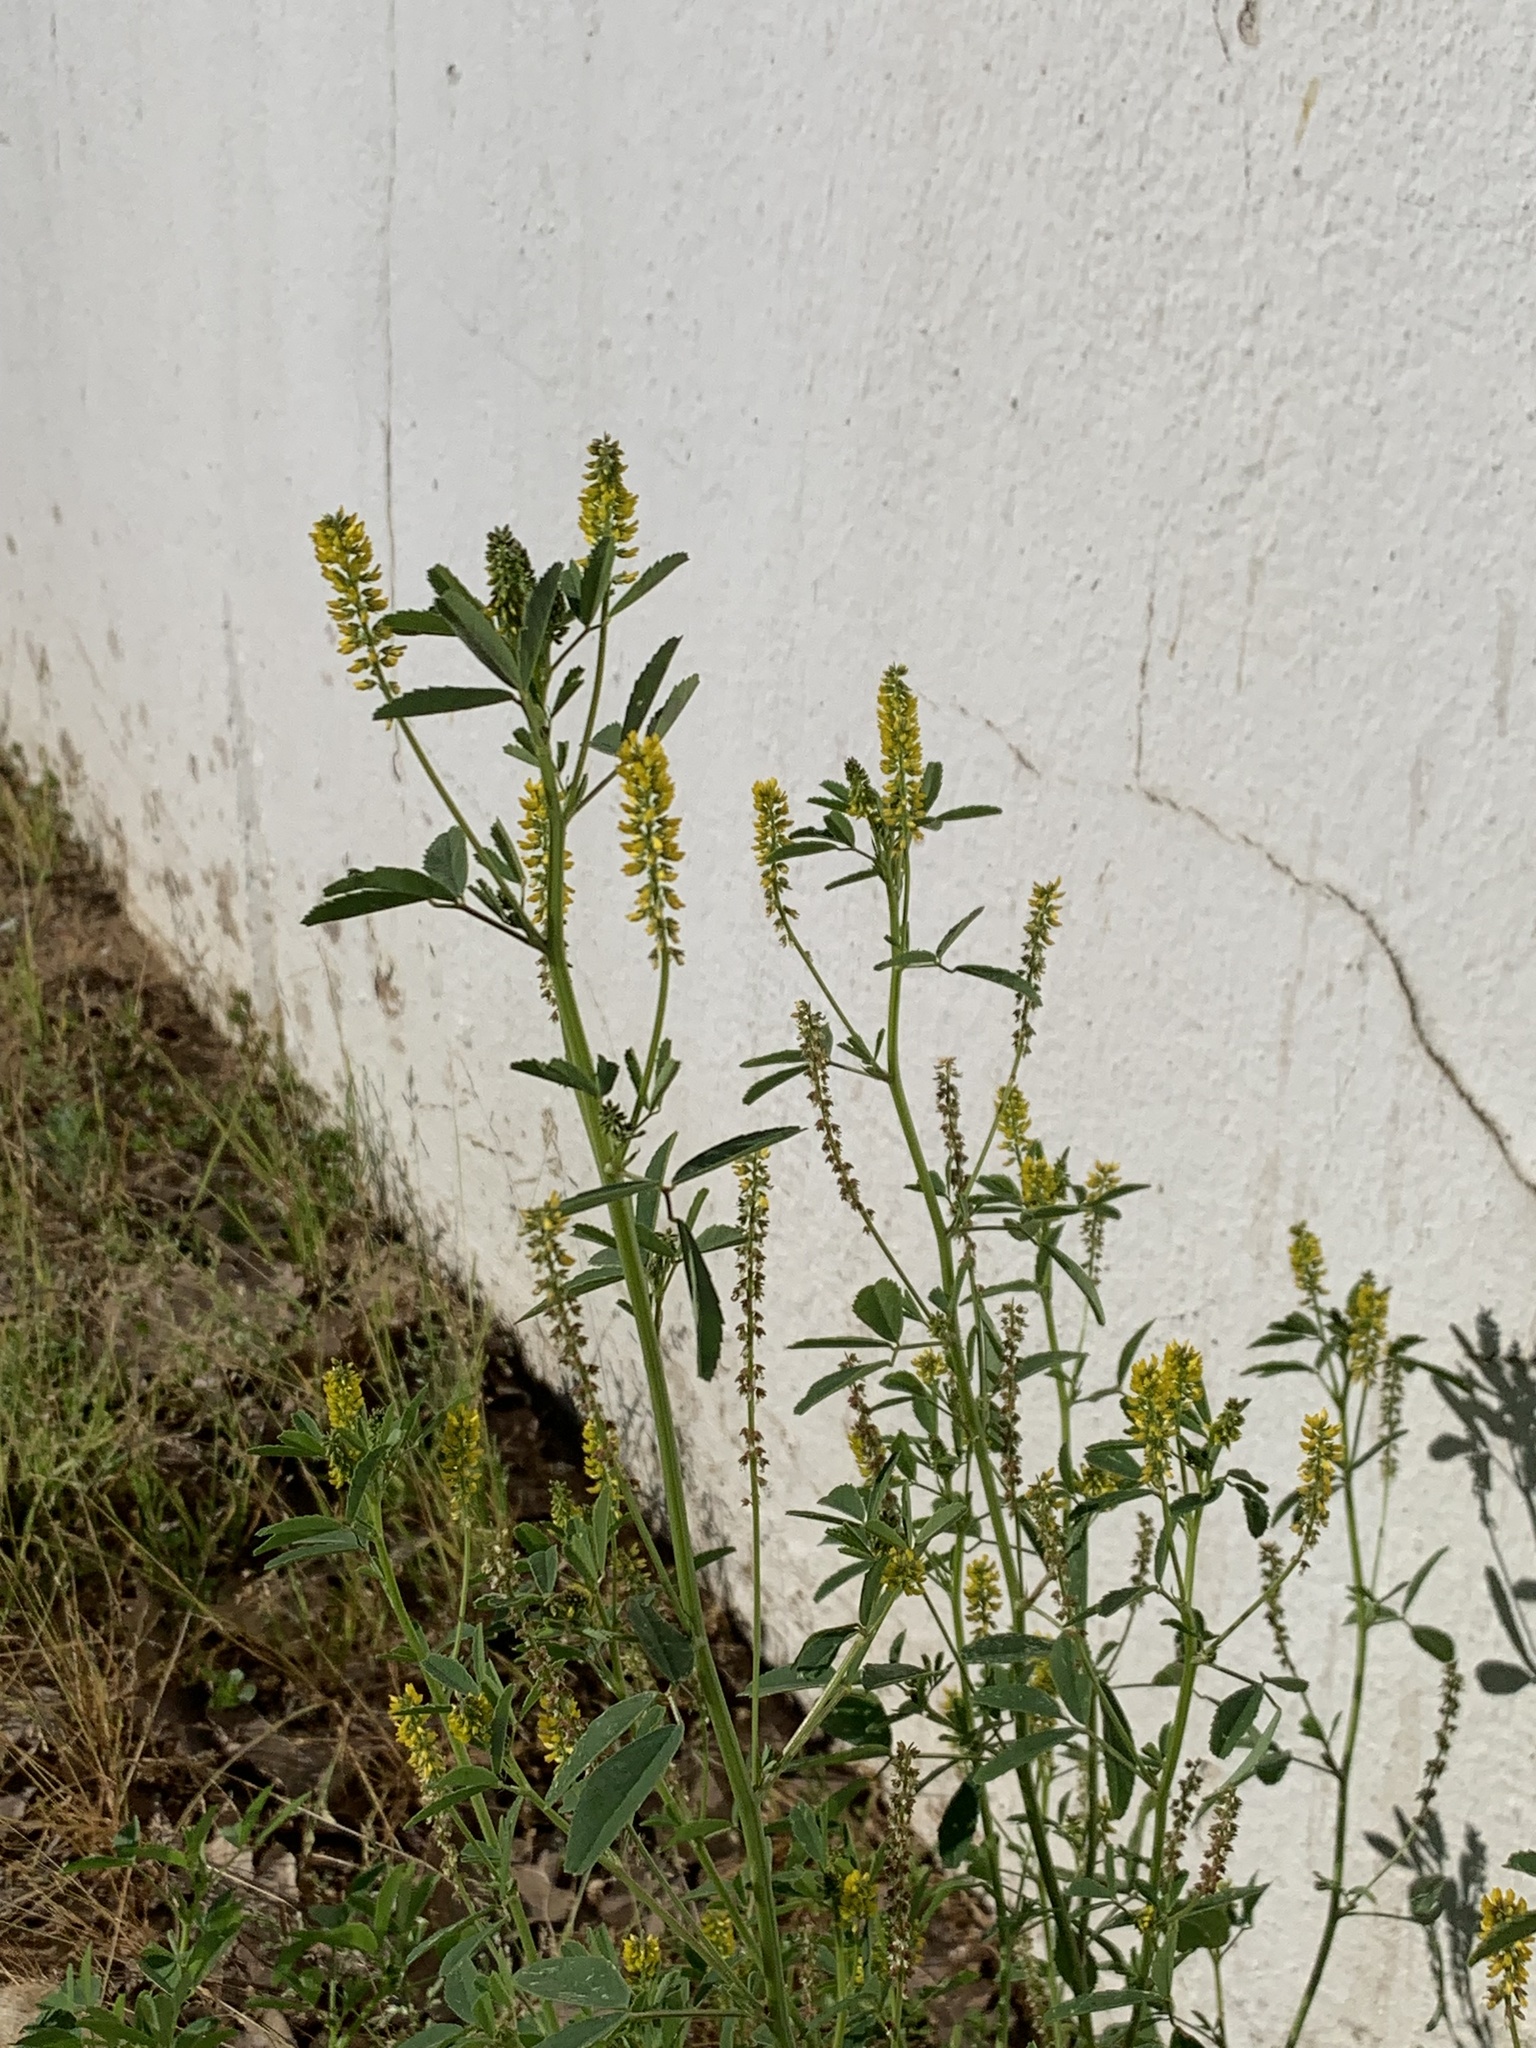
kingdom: Plantae
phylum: Tracheophyta
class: Magnoliopsida
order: Fabales
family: Fabaceae
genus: Melilotus
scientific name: Melilotus indicus
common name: Small melilot
